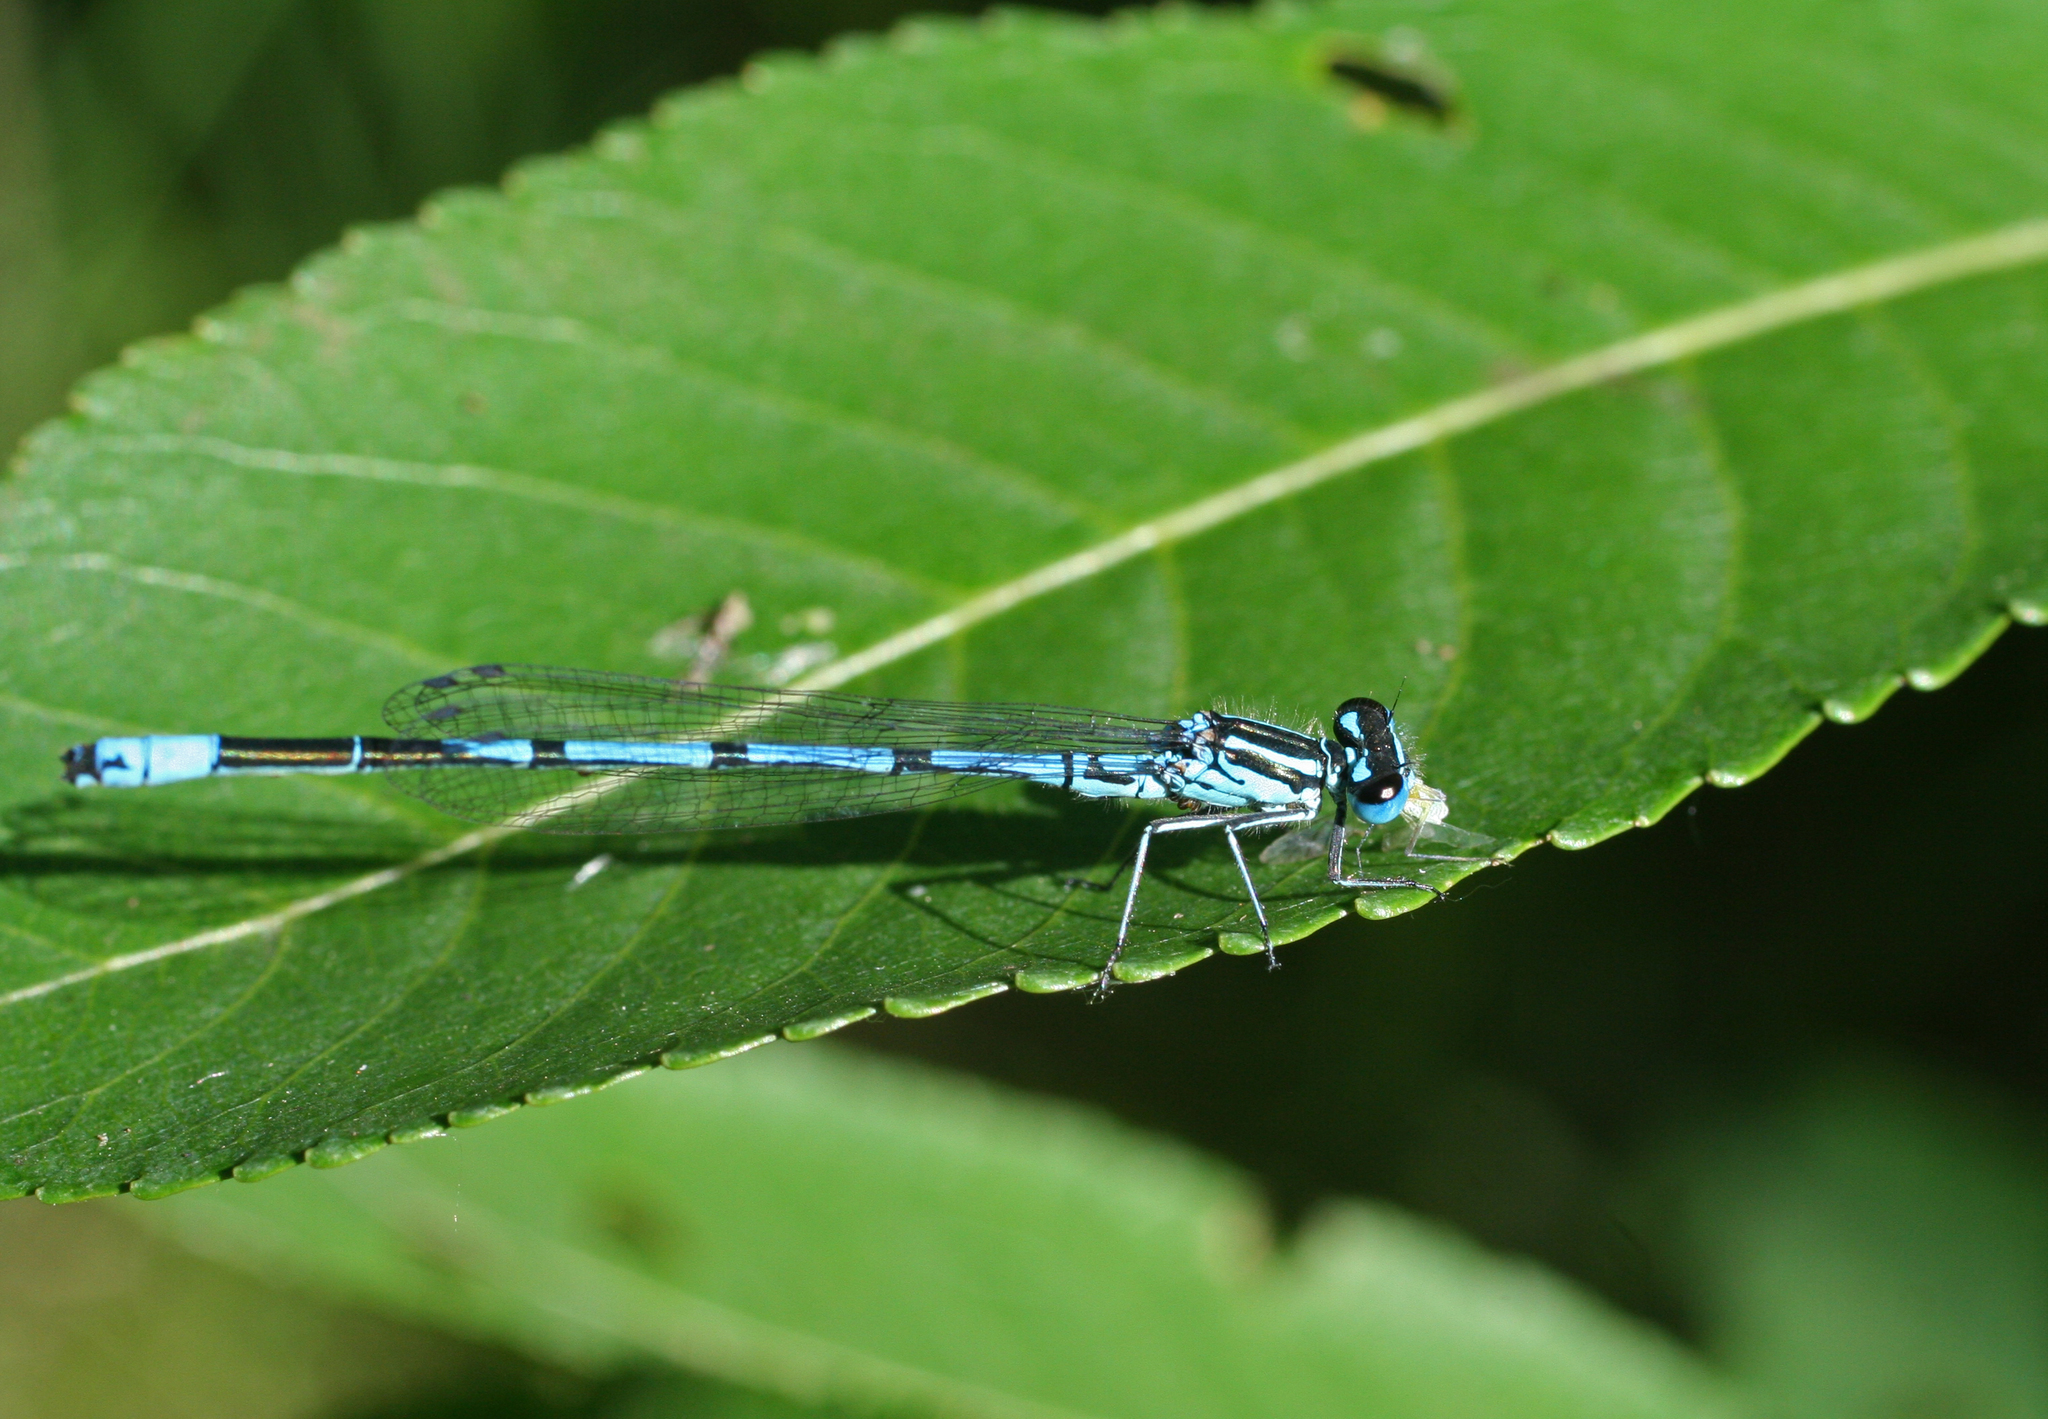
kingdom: Animalia
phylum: Arthropoda
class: Insecta
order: Odonata
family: Coenagrionidae
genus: Coenagrion
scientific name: Coenagrion puella
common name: Azure damselfly
